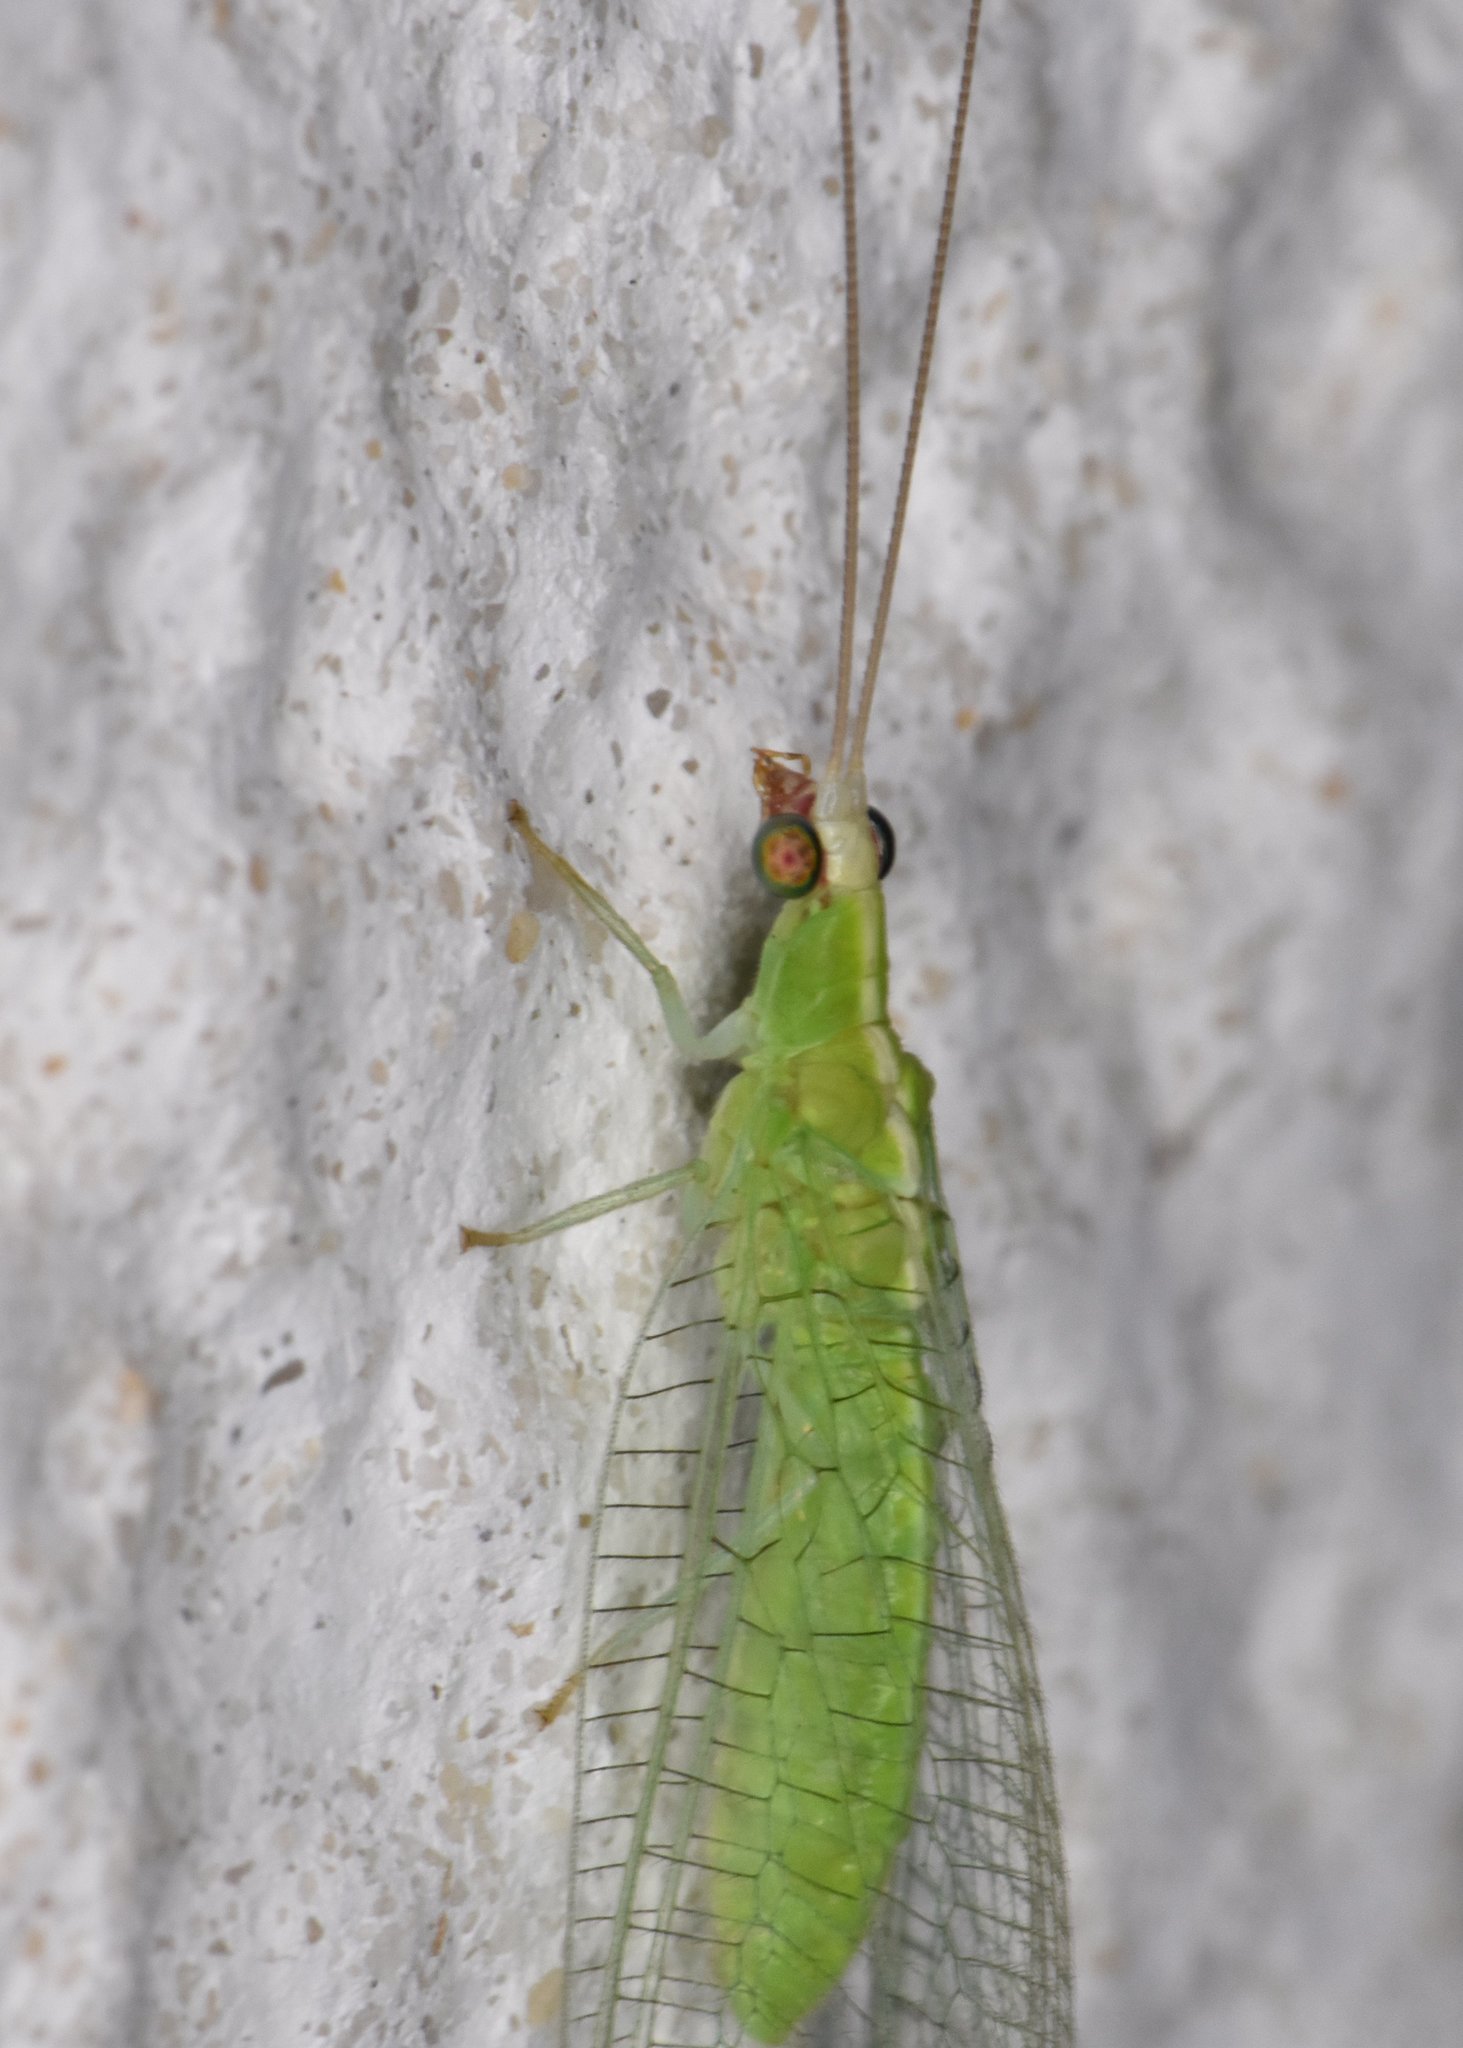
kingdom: Animalia
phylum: Arthropoda
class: Insecta
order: Neuroptera
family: Chrysopidae
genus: Chrysopodes
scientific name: Chrysopodes collaris
